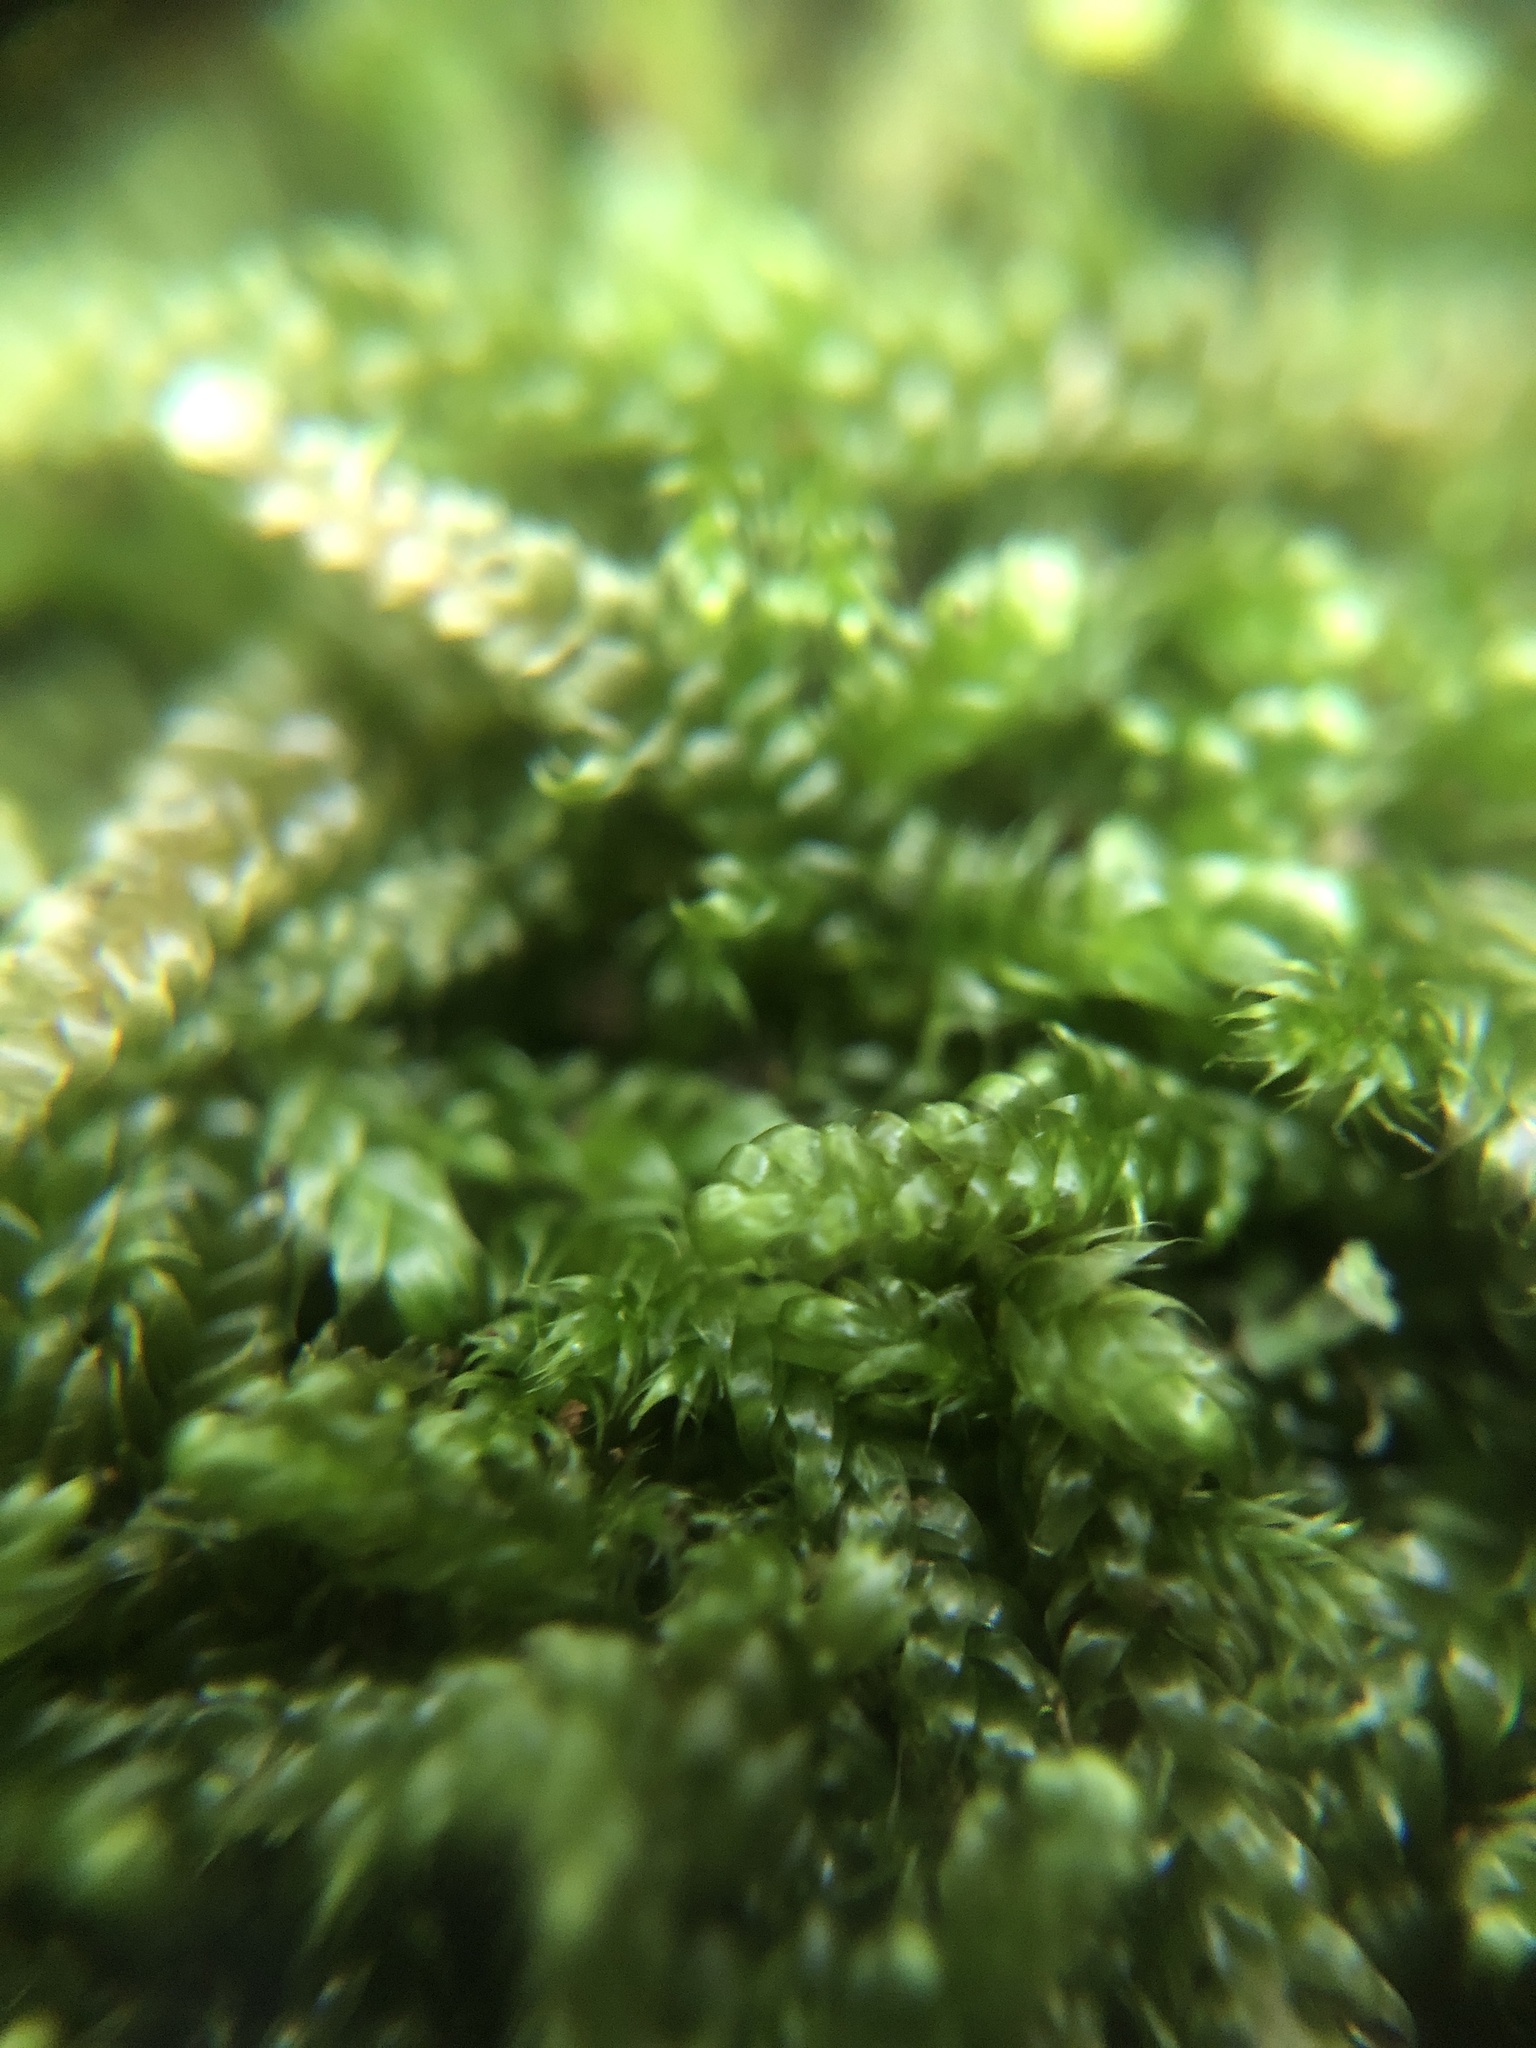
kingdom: Plantae
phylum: Bryophyta
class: Bryopsida
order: Hypnales
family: Hypnaceae
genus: Hypnum
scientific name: Hypnum cupressiforme
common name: Cypress-leaved plait-moss
